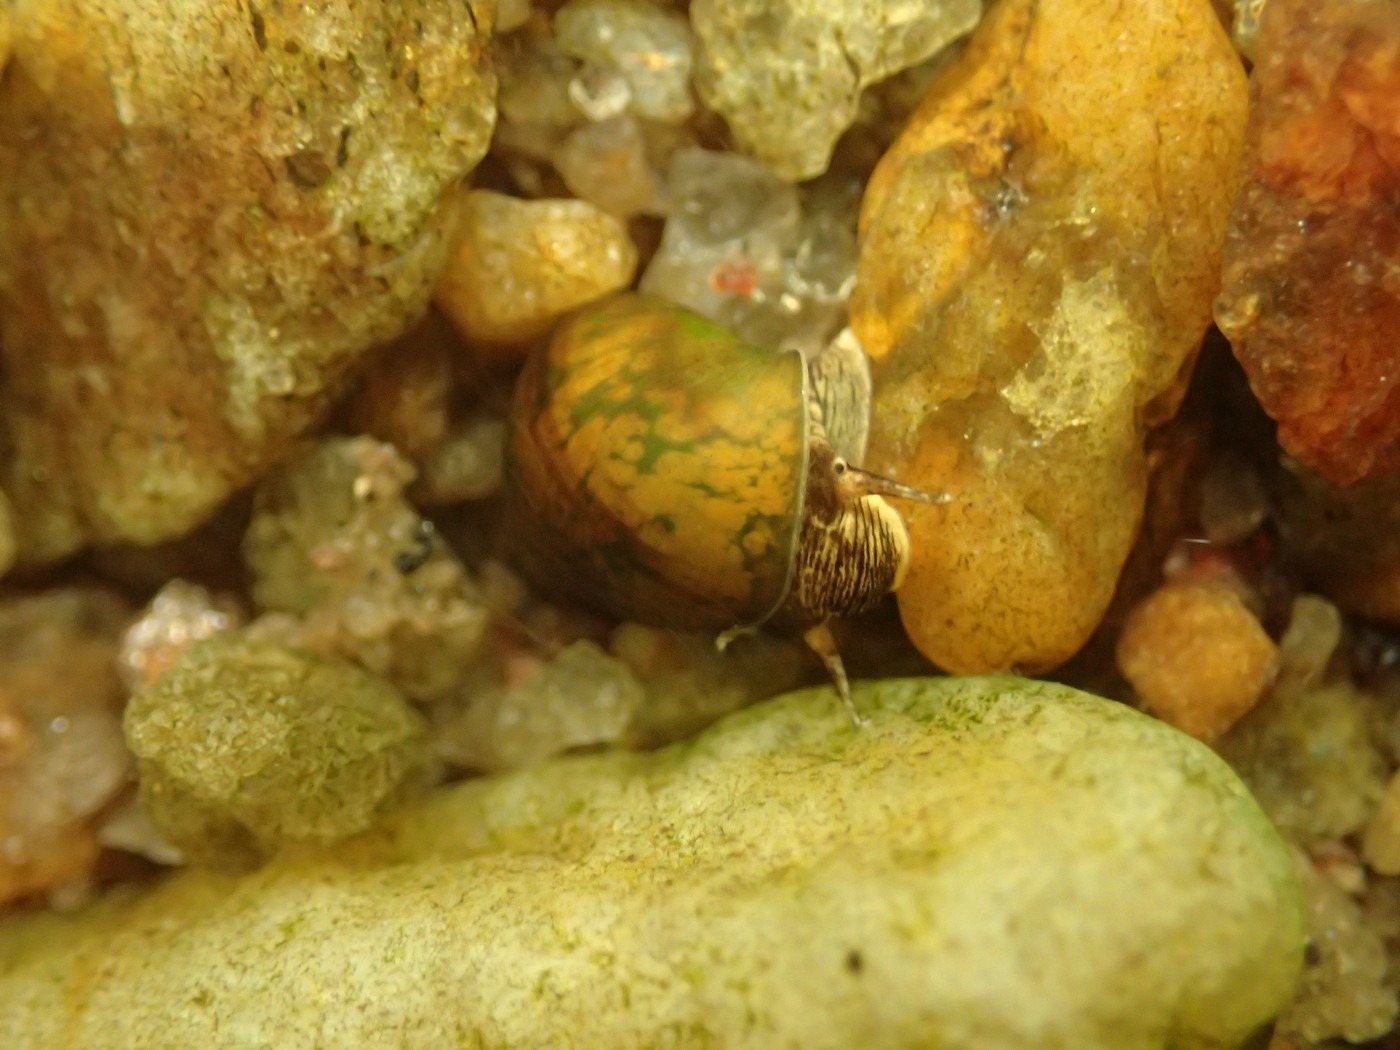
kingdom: Animalia
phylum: Mollusca
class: Gastropoda
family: Pleuroceridae
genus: Leptoxis
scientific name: Leptoxis dilatata
